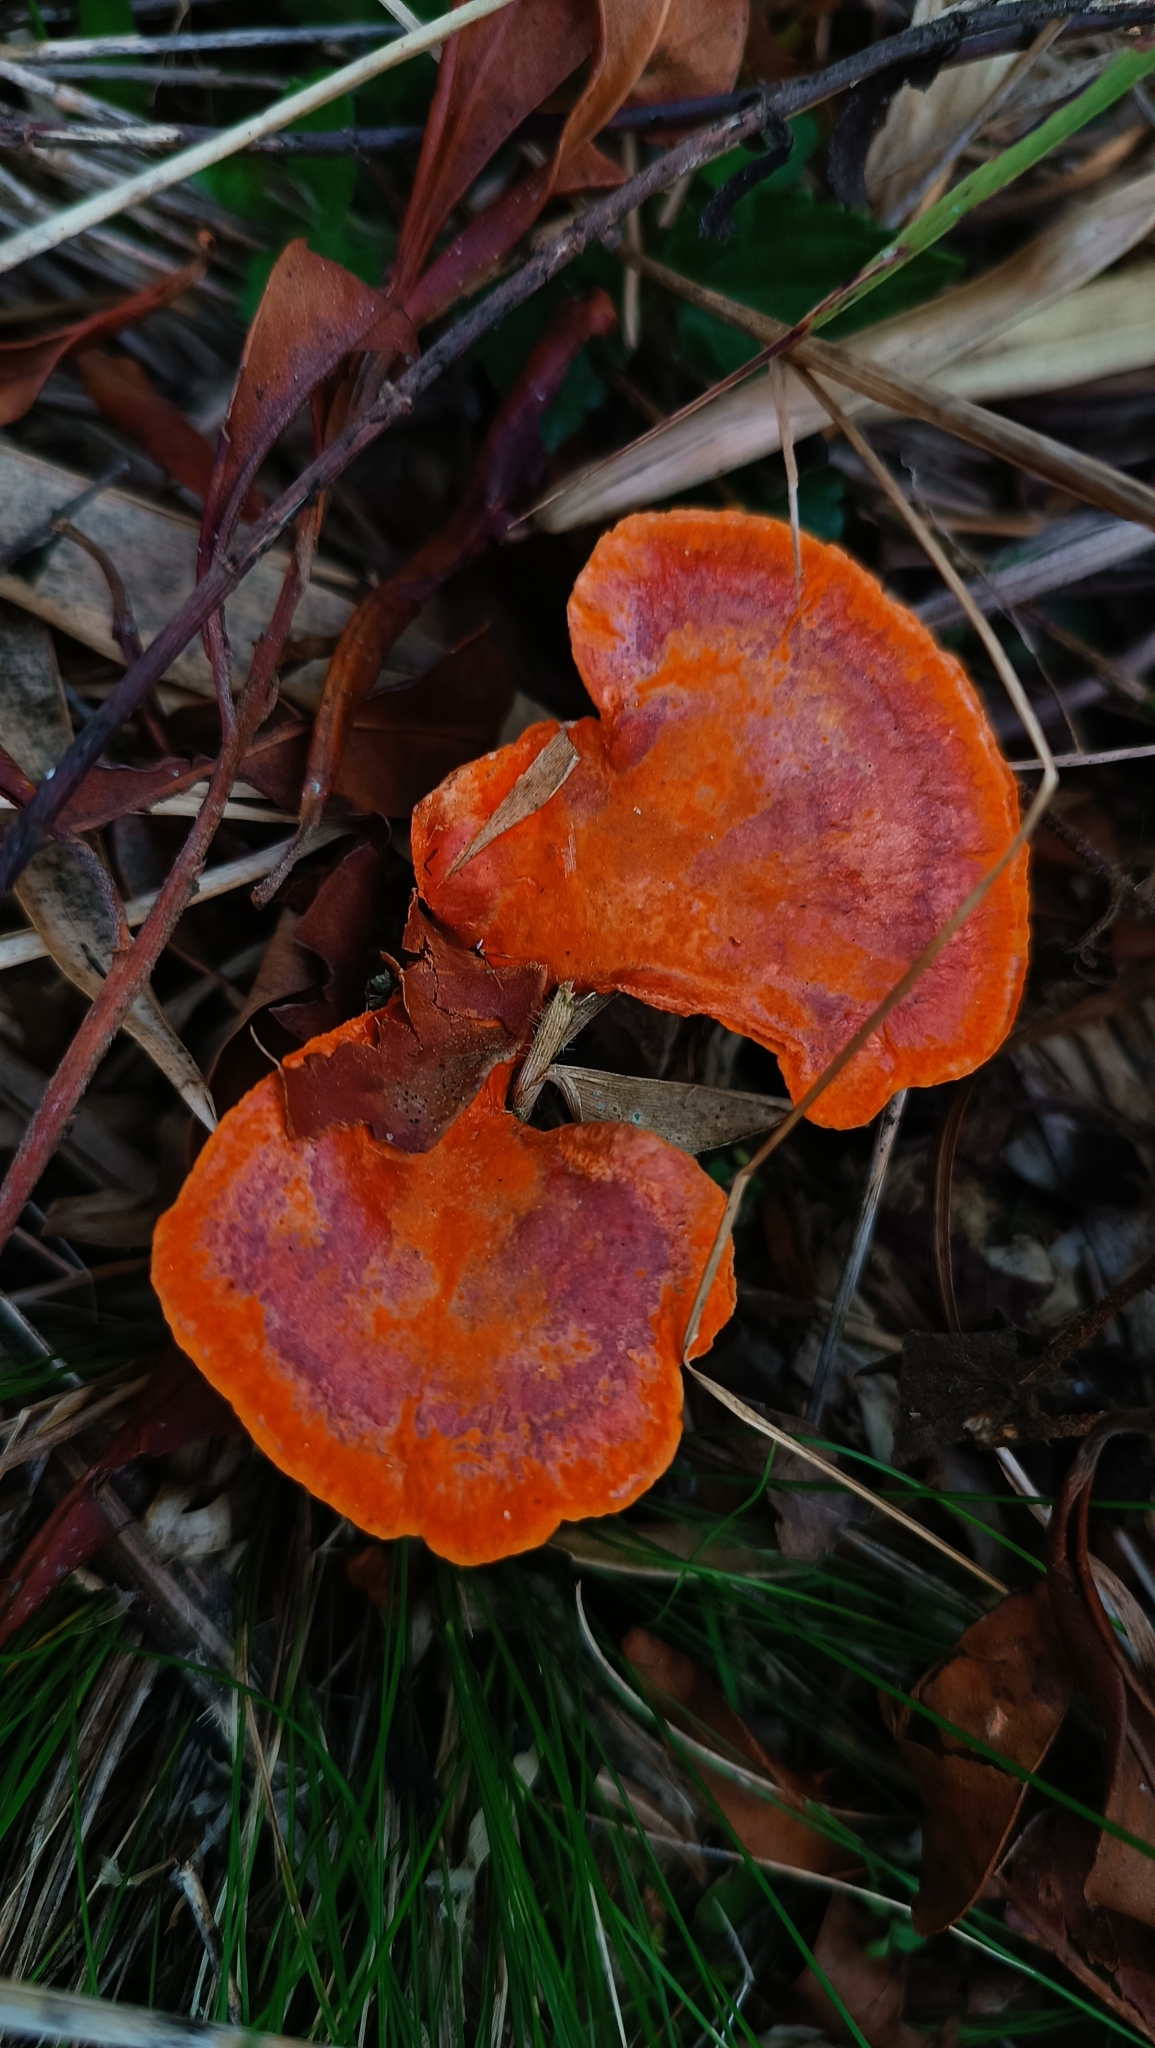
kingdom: Fungi
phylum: Basidiomycota
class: Agaricomycetes
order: Polyporales
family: Polyporaceae
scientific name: Polyporaceae
